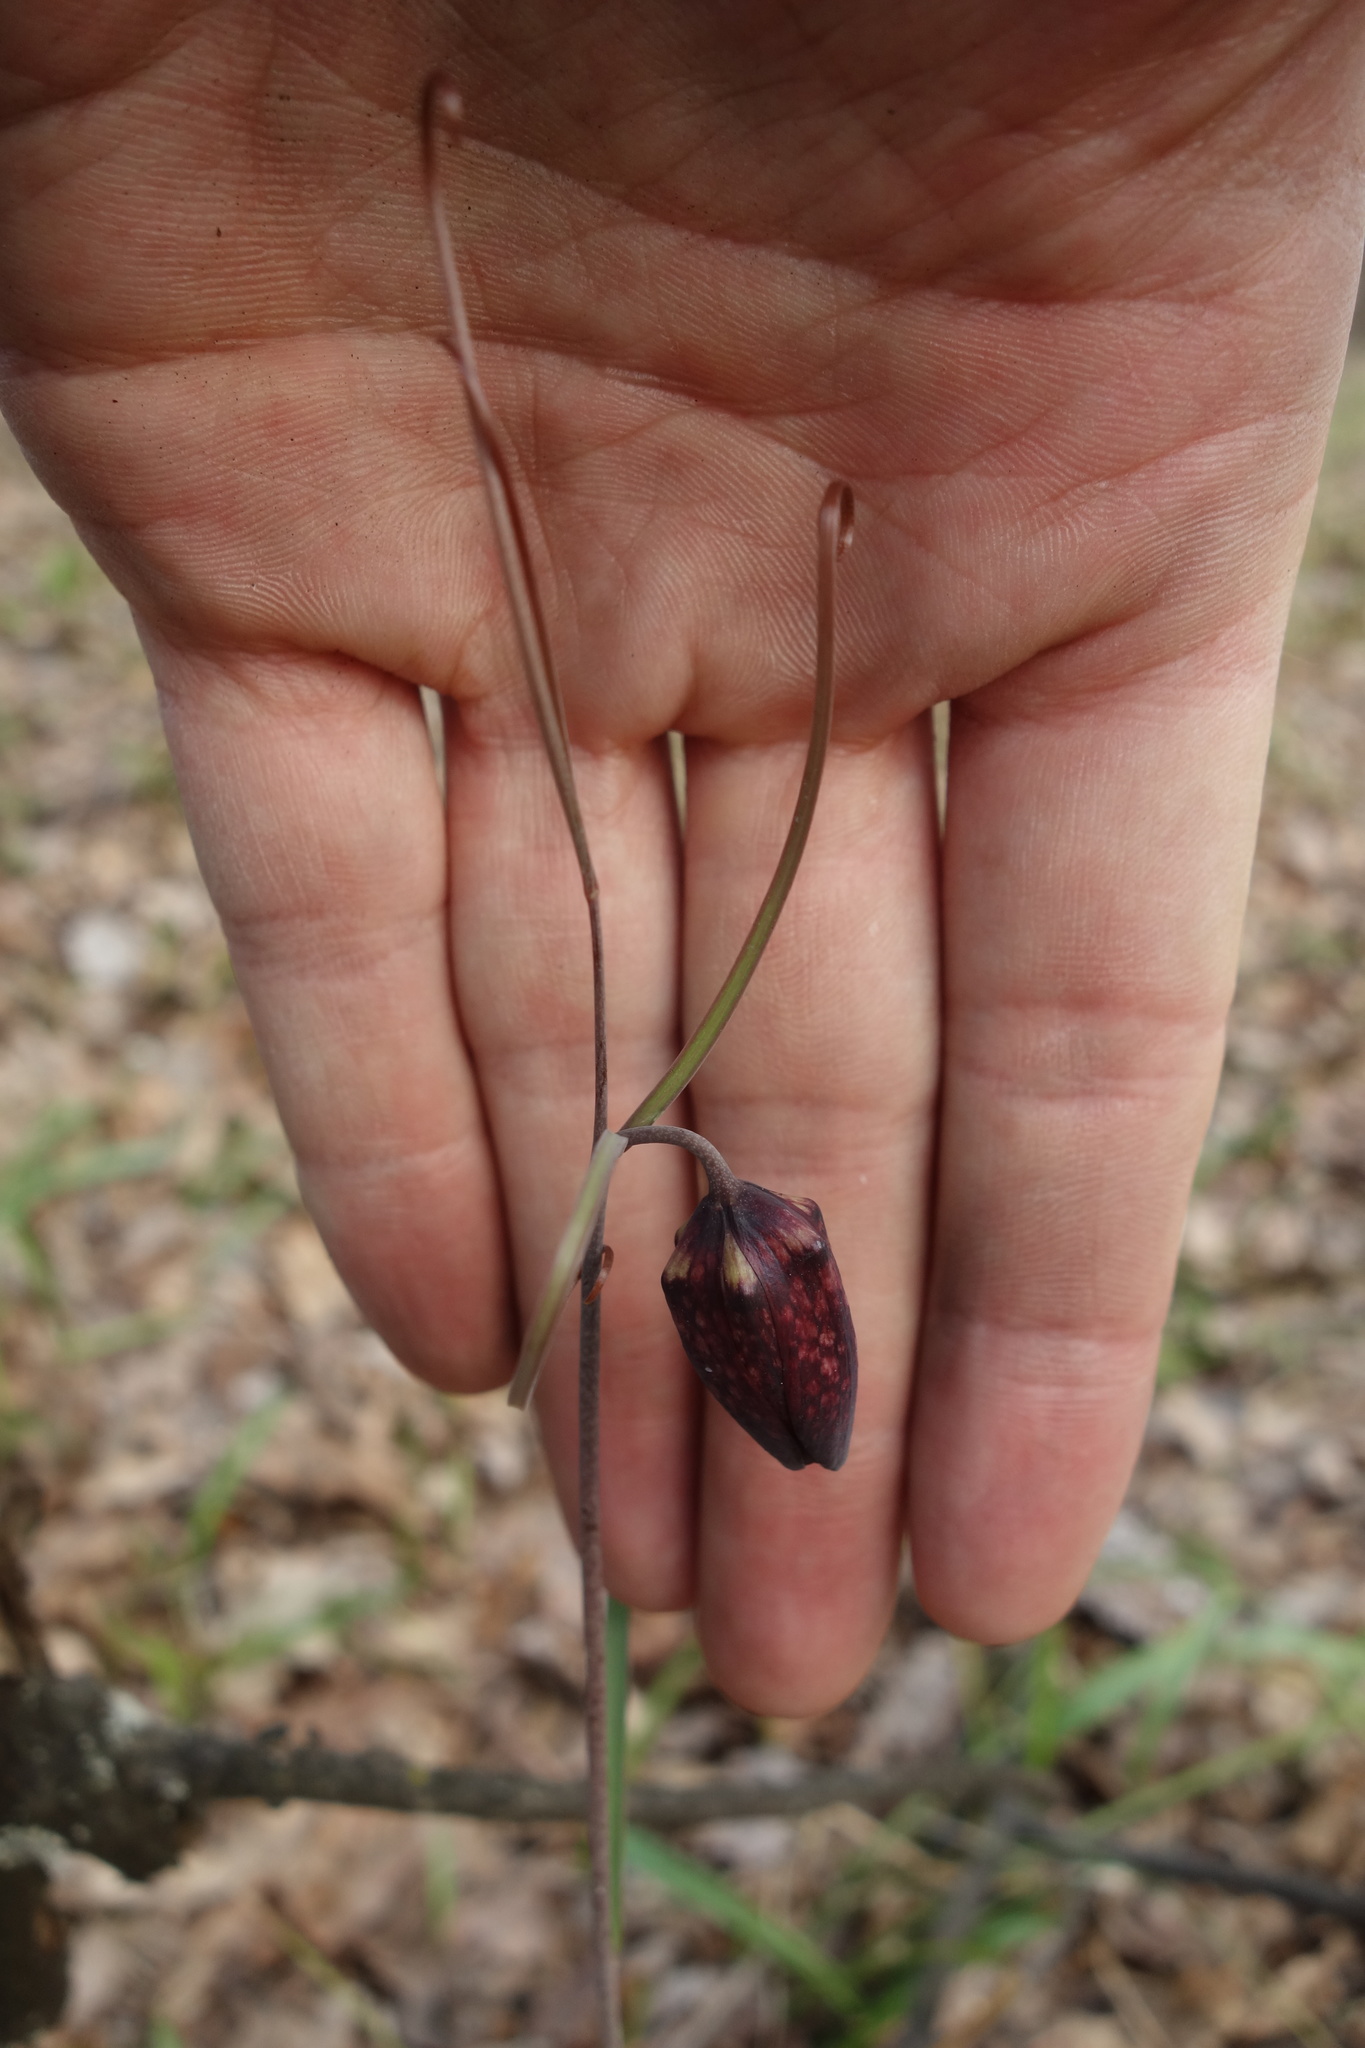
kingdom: Plantae
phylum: Tracheophyta
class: Liliopsida
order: Liliales
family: Liliaceae
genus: Fritillaria
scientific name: Fritillaria ruthenica
